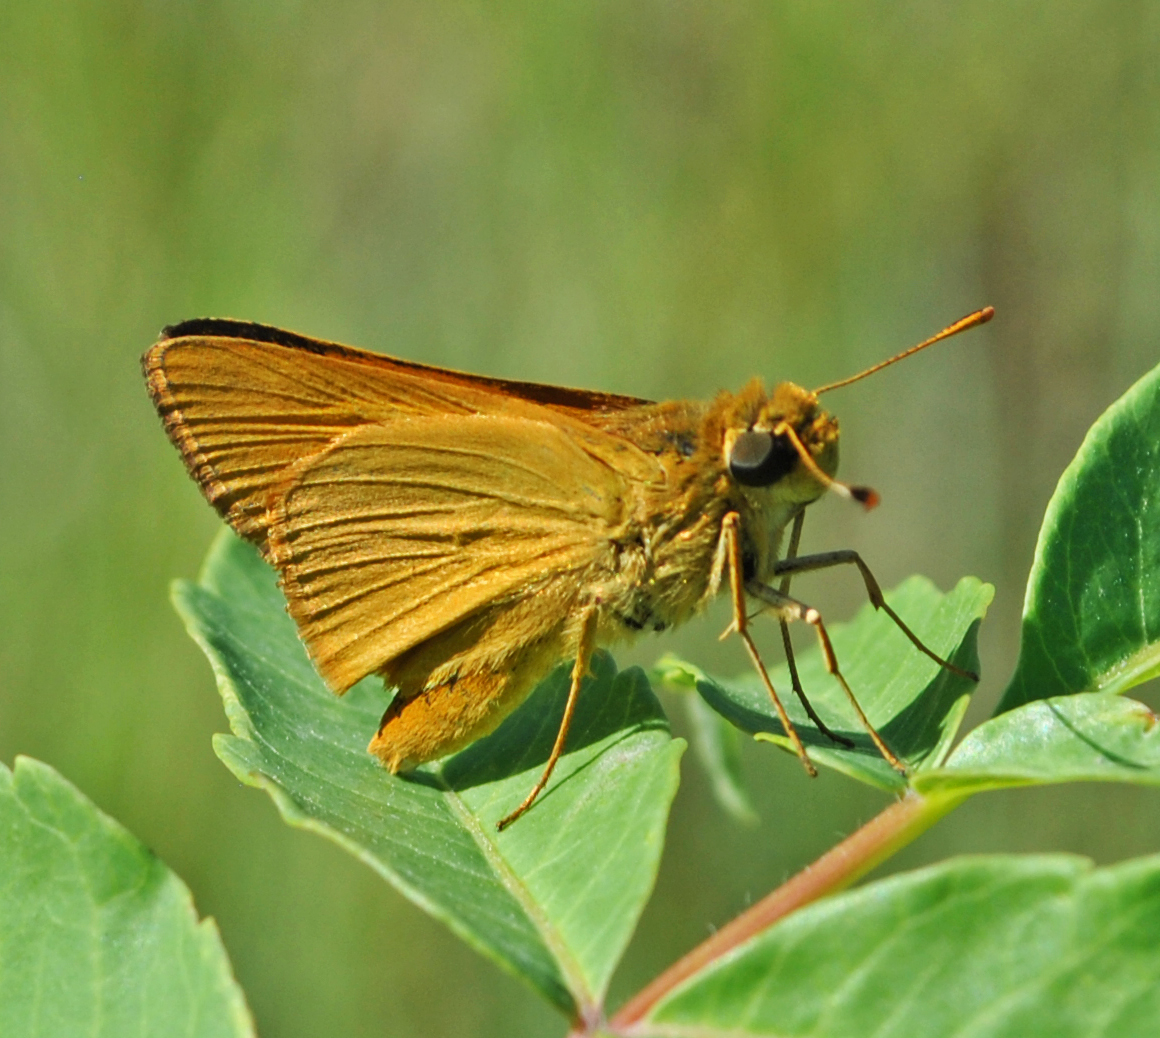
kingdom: Animalia
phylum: Arthropoda
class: Insecta
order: Lepidoptera
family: Hesperiidae
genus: Atrytone
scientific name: Atrytone delaware
